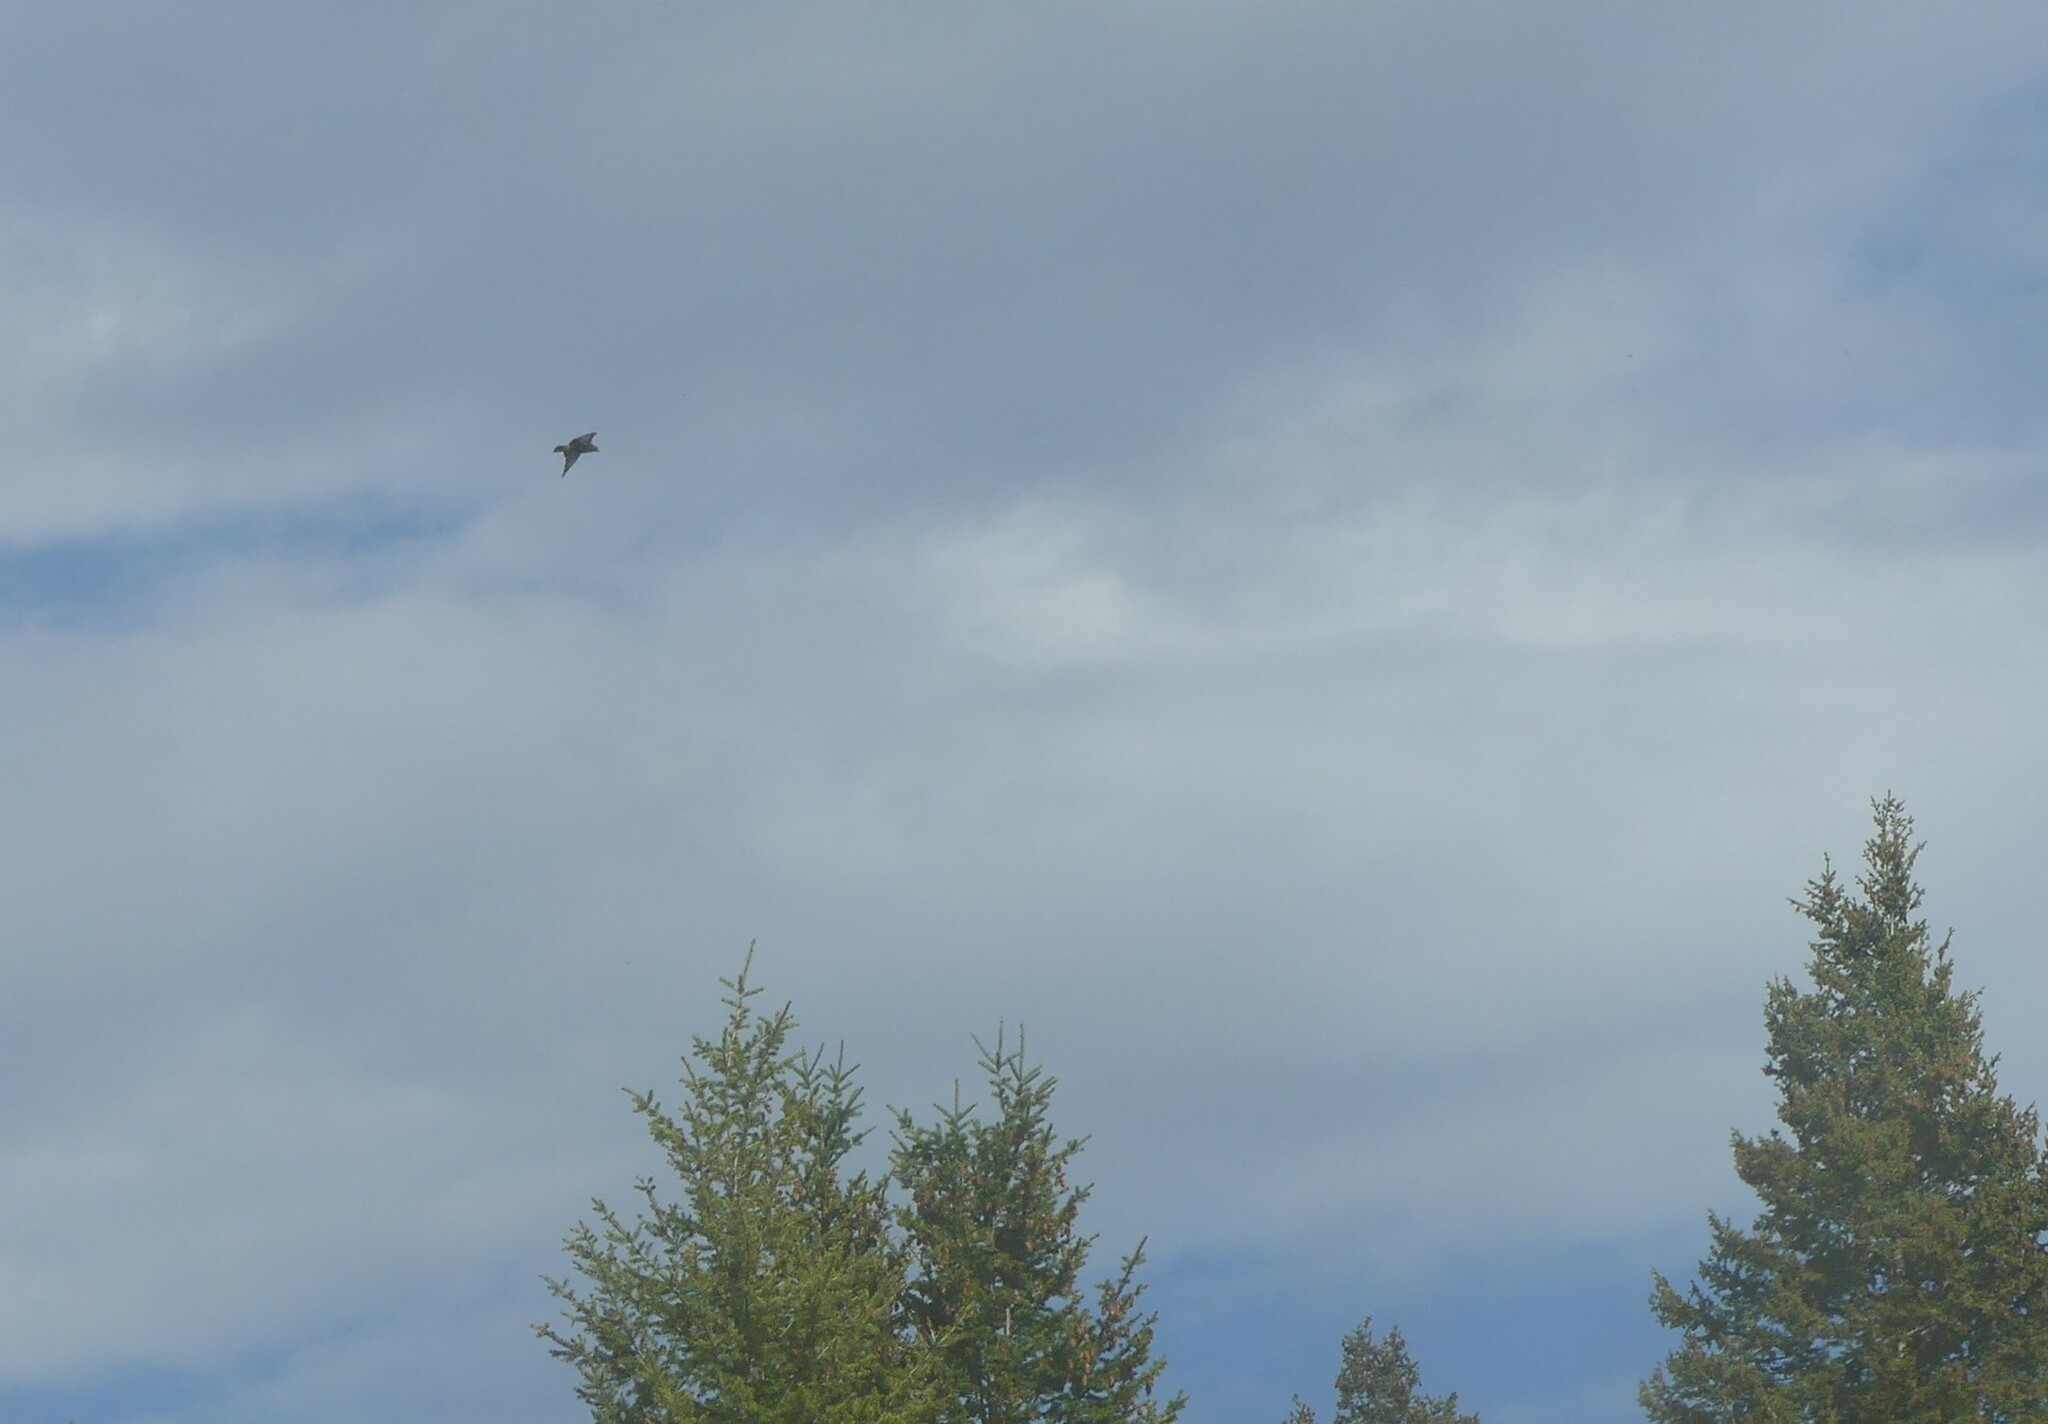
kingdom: Animalia
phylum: Chordata
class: Aves
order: Accipitriformes
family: Accipitridae
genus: Buteo
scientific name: Buteo jamaicensis
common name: Red-tailed hawk
